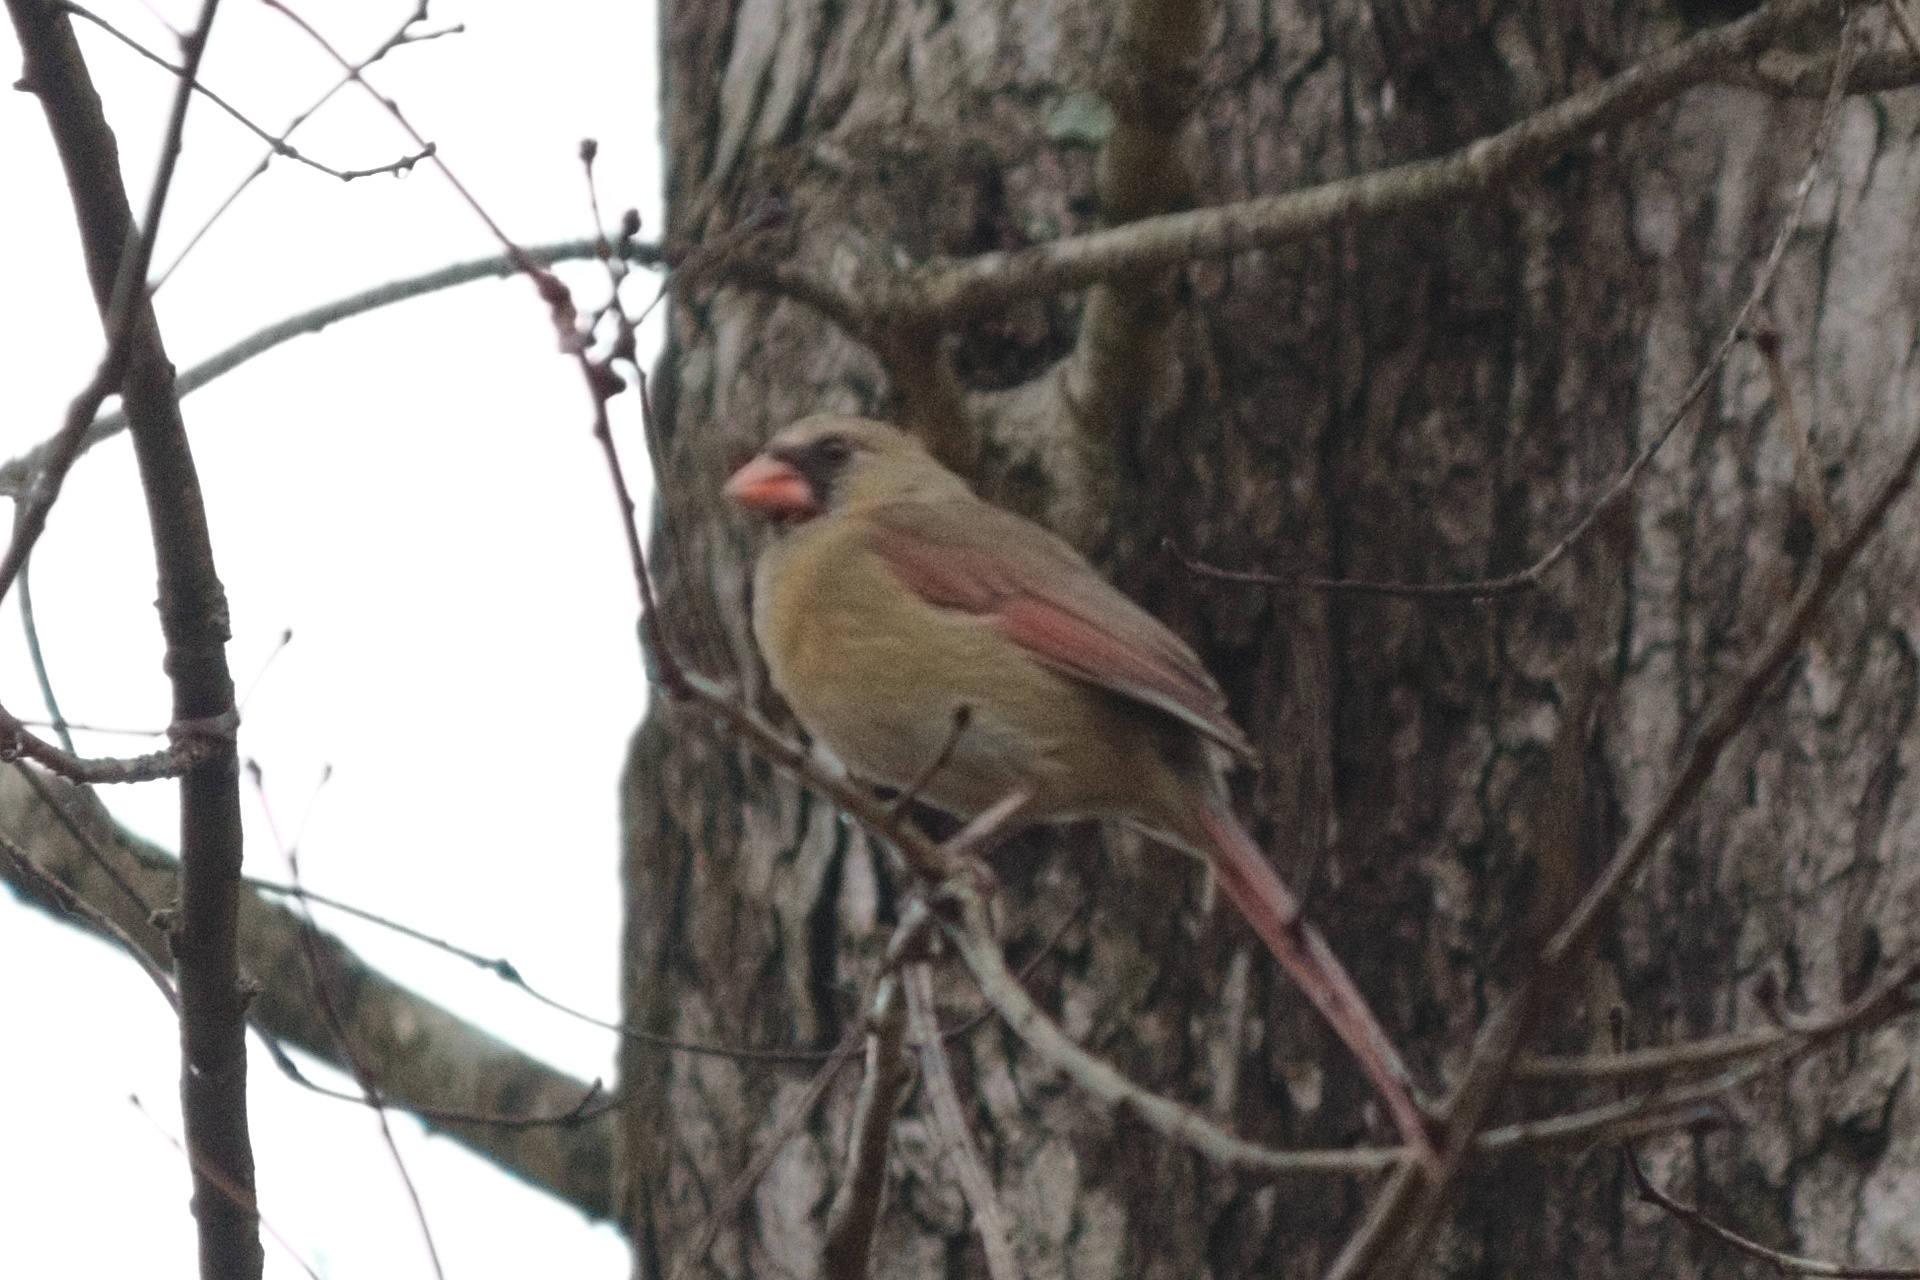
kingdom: Animalia
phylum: Chordata
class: Aves
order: Passeriformes
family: Cardinalidae
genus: Cardinalis
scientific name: Cardinalis cardinalis
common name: Northern cardinal
